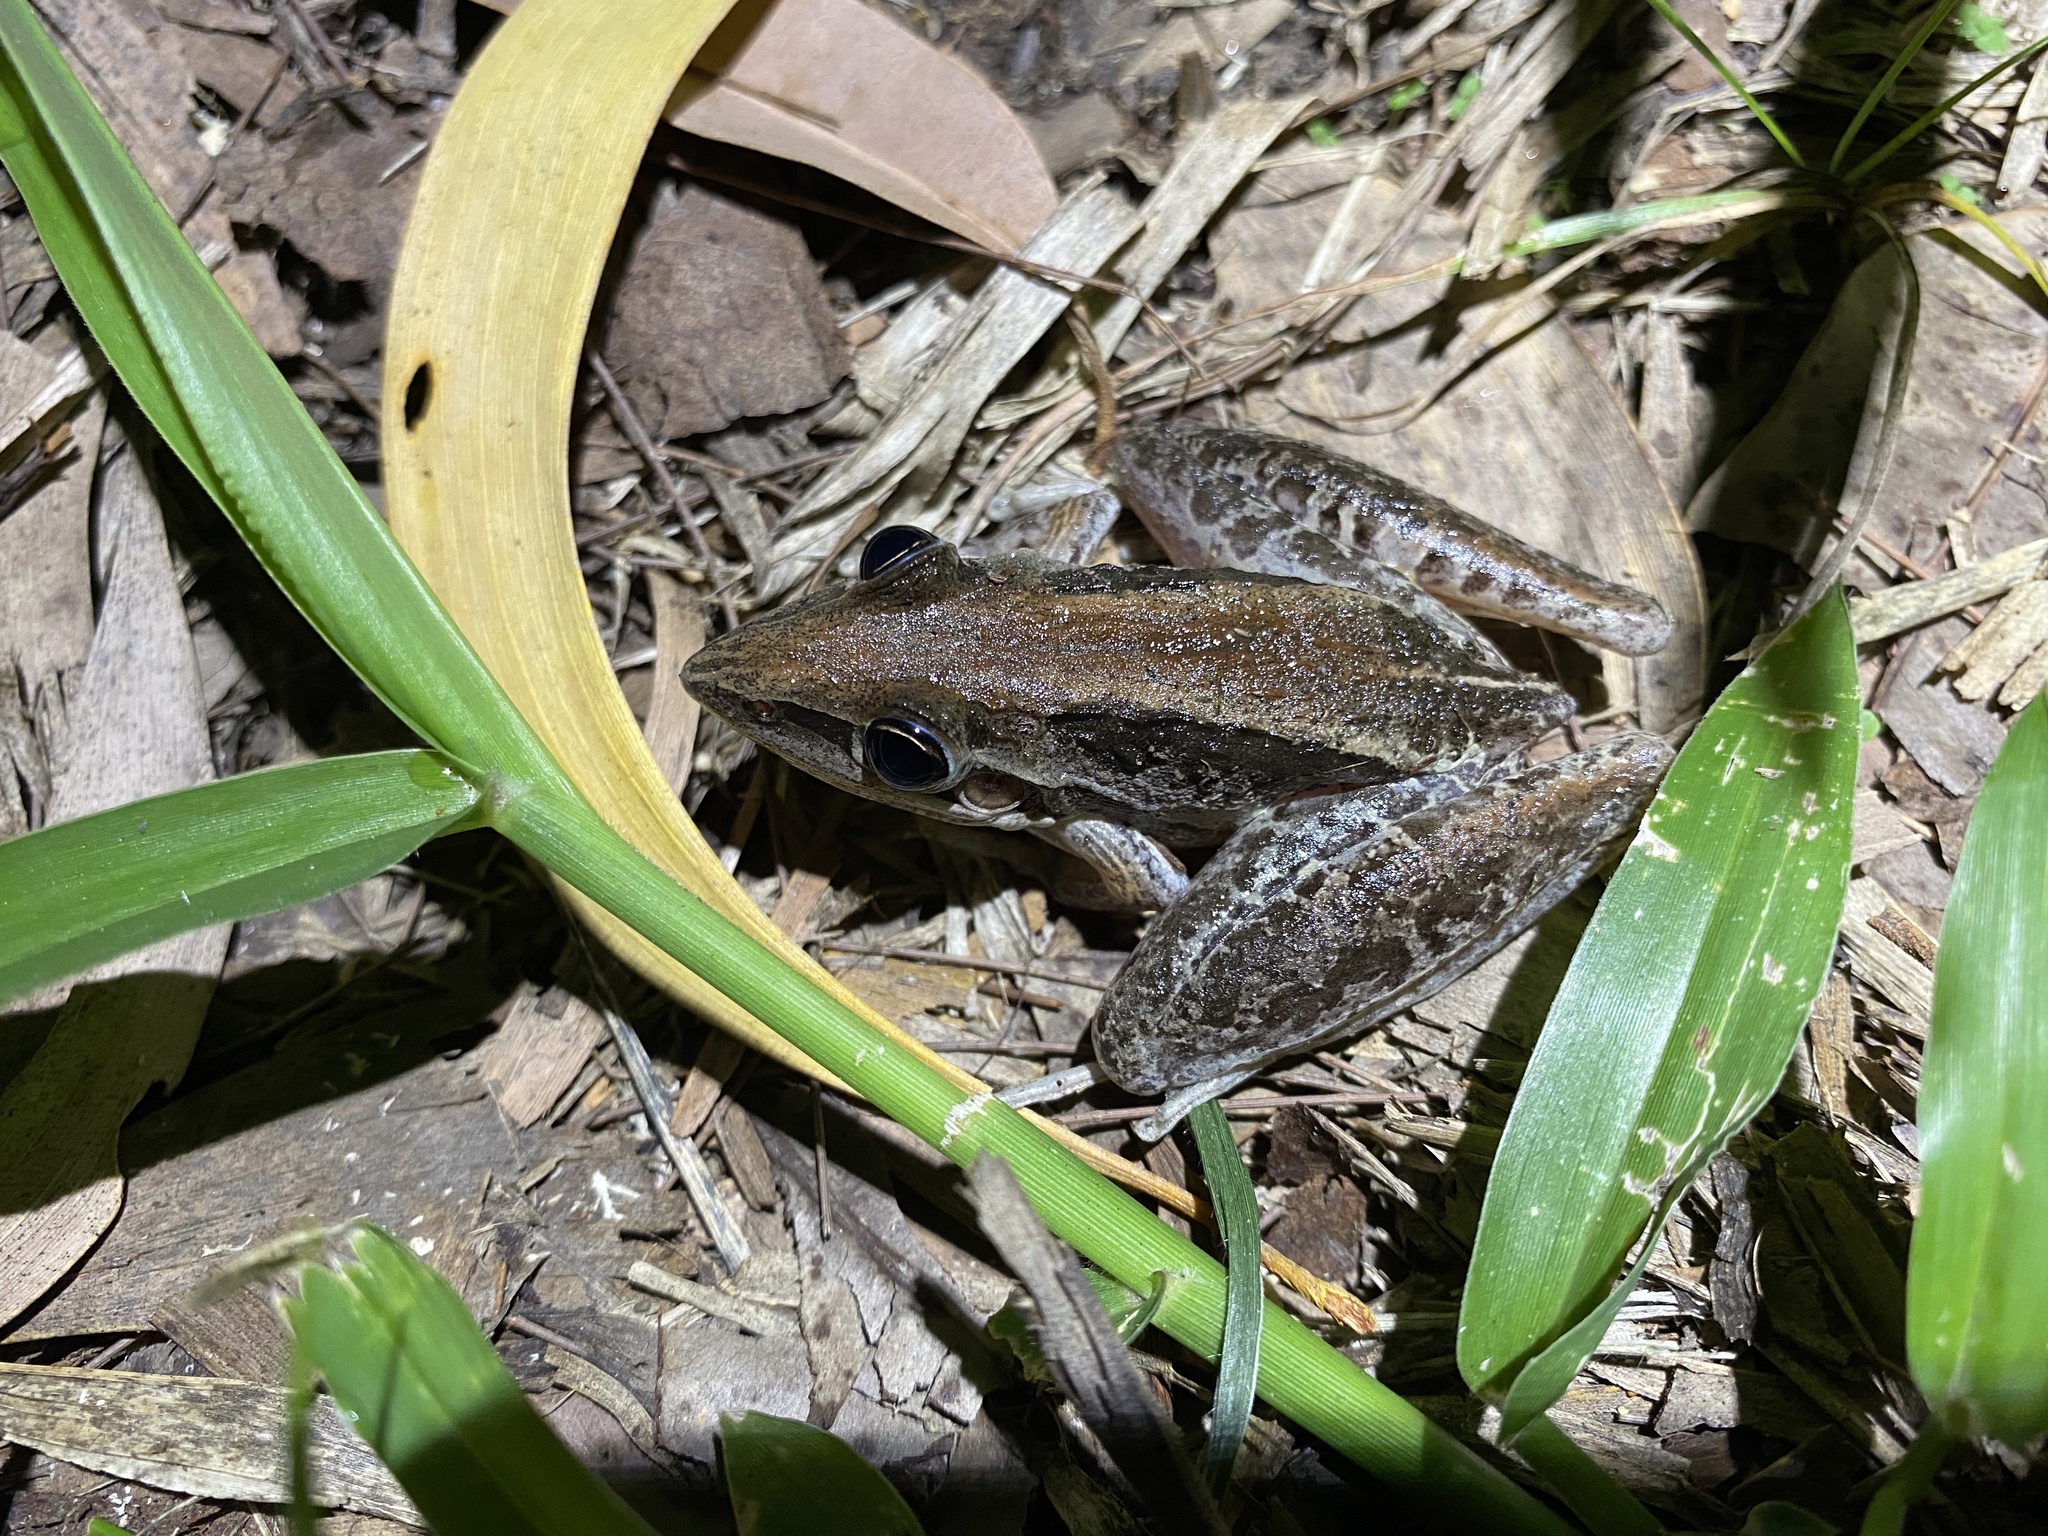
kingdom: Animalia
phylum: Chordata
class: Amphibia
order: Anura
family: Pelodryadidae
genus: Litoria
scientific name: Litoria nasuta
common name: Rocket frog
